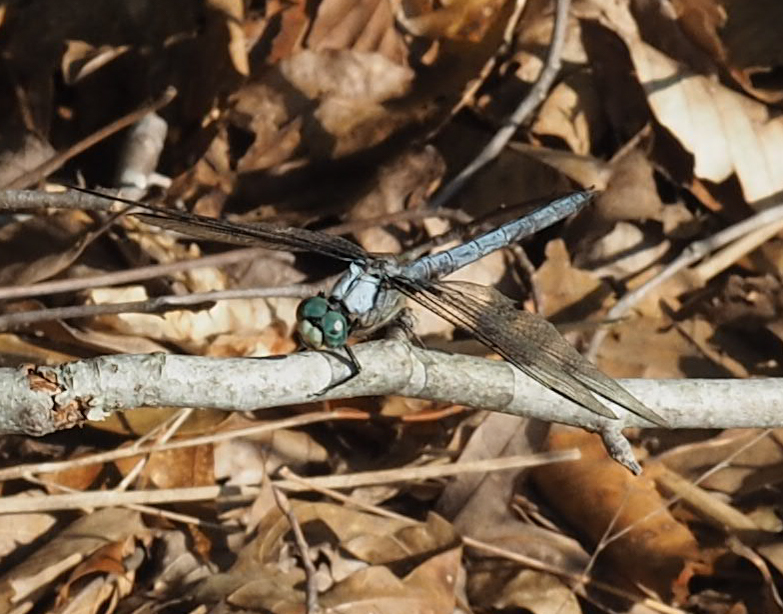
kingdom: Animalia
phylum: Arthropoda
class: Insecta
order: Odonata
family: Libellulidae
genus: Libellula
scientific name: Libellula vibrans
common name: Great blue skimmer
